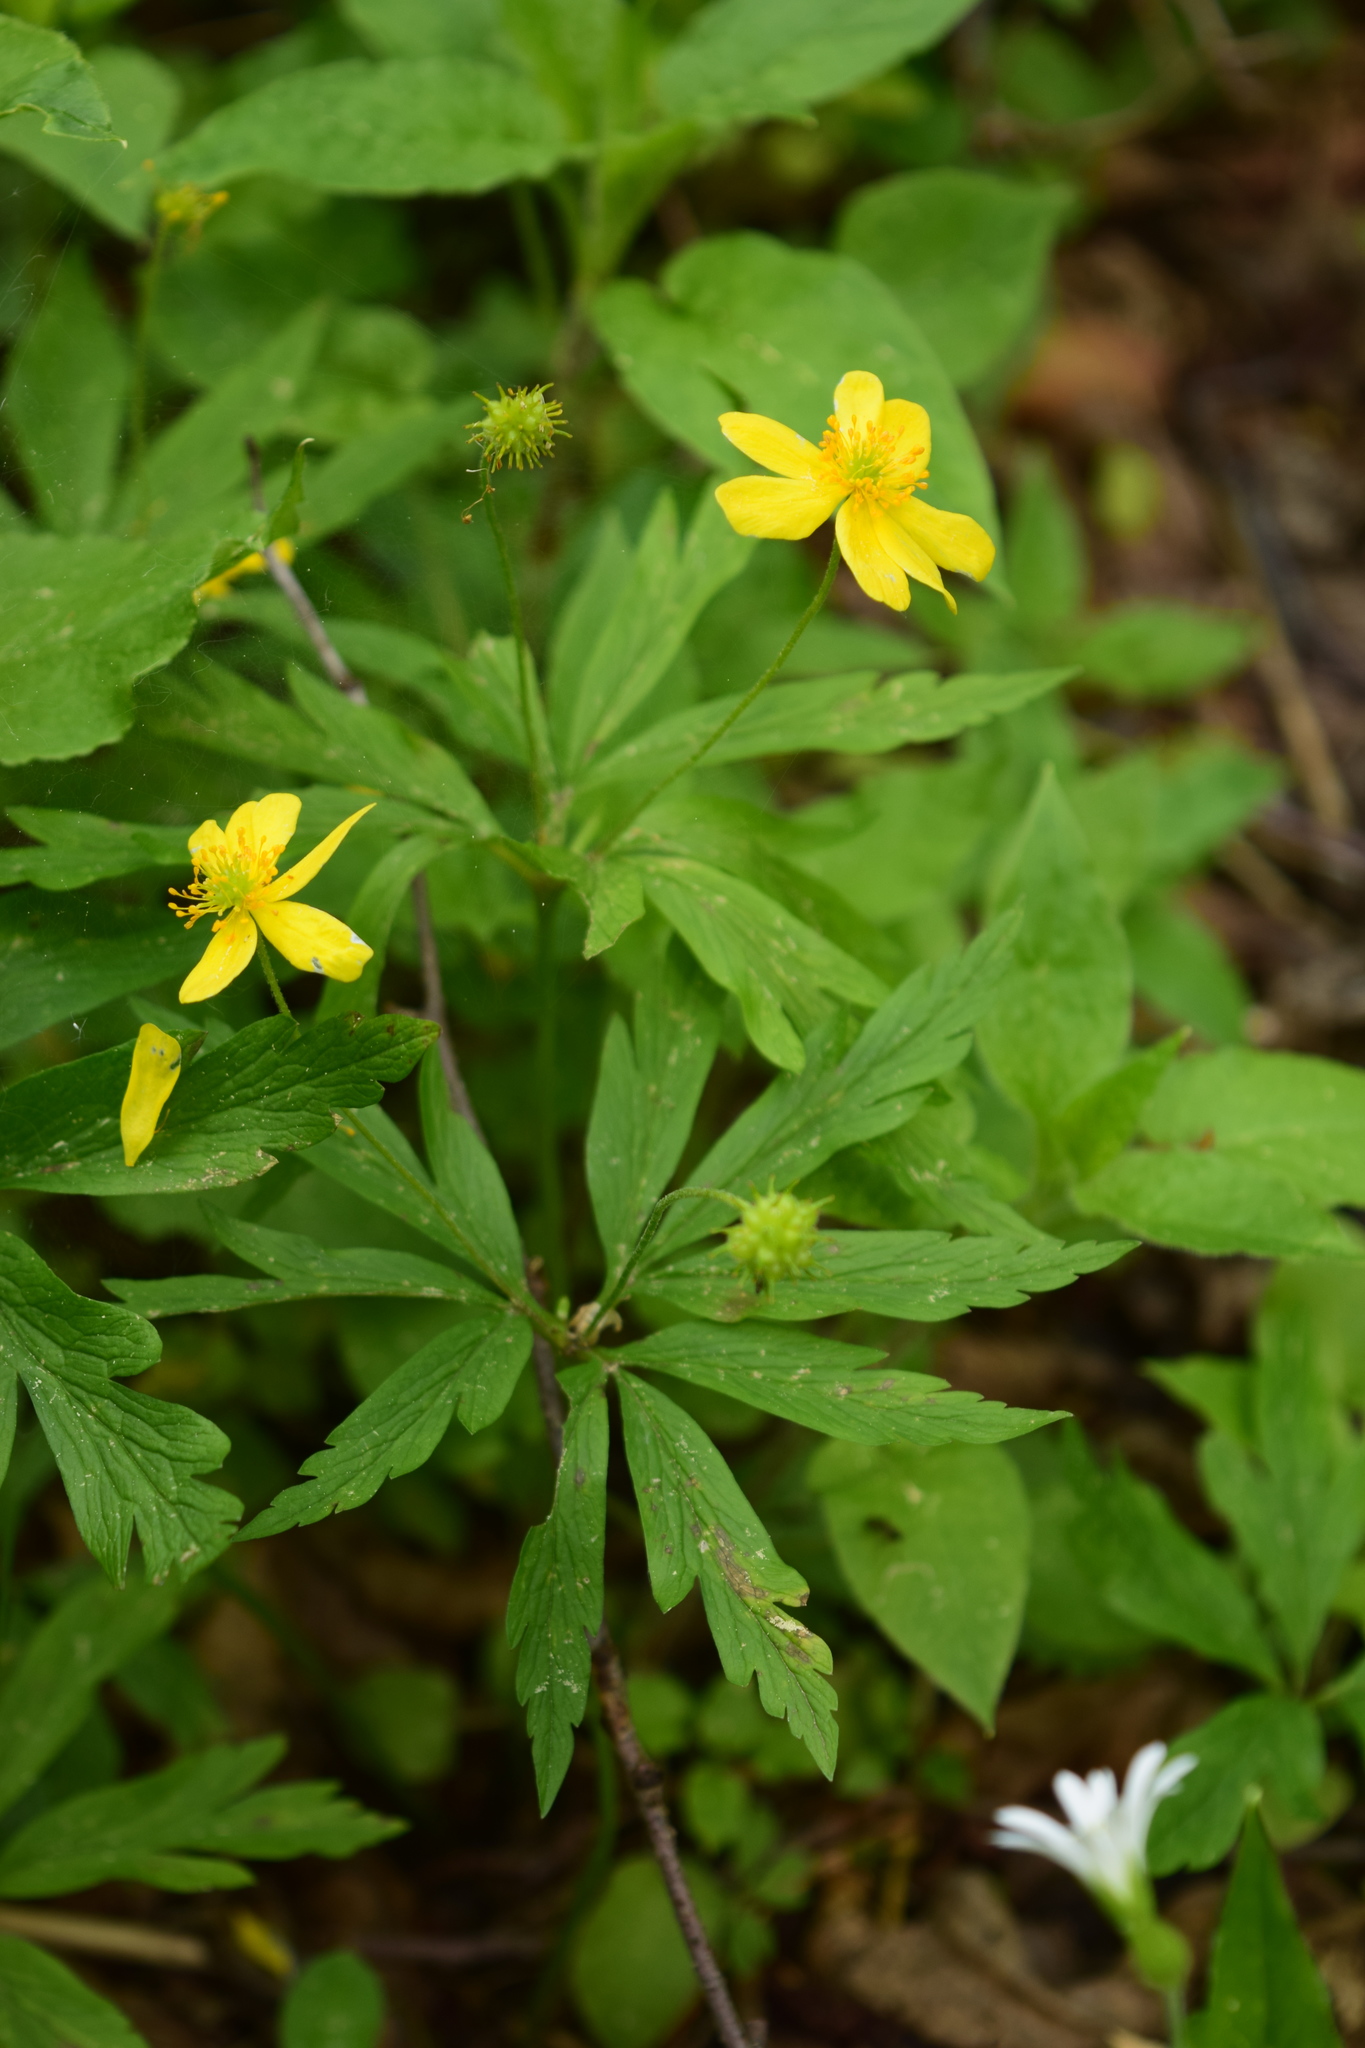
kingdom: Plantae
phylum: Tracheophyta
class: Magnoliopsida
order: Ranunculales
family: Ranunculaceae
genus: Anemone
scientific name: Anemone ranunculoides
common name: Yellow anemone
